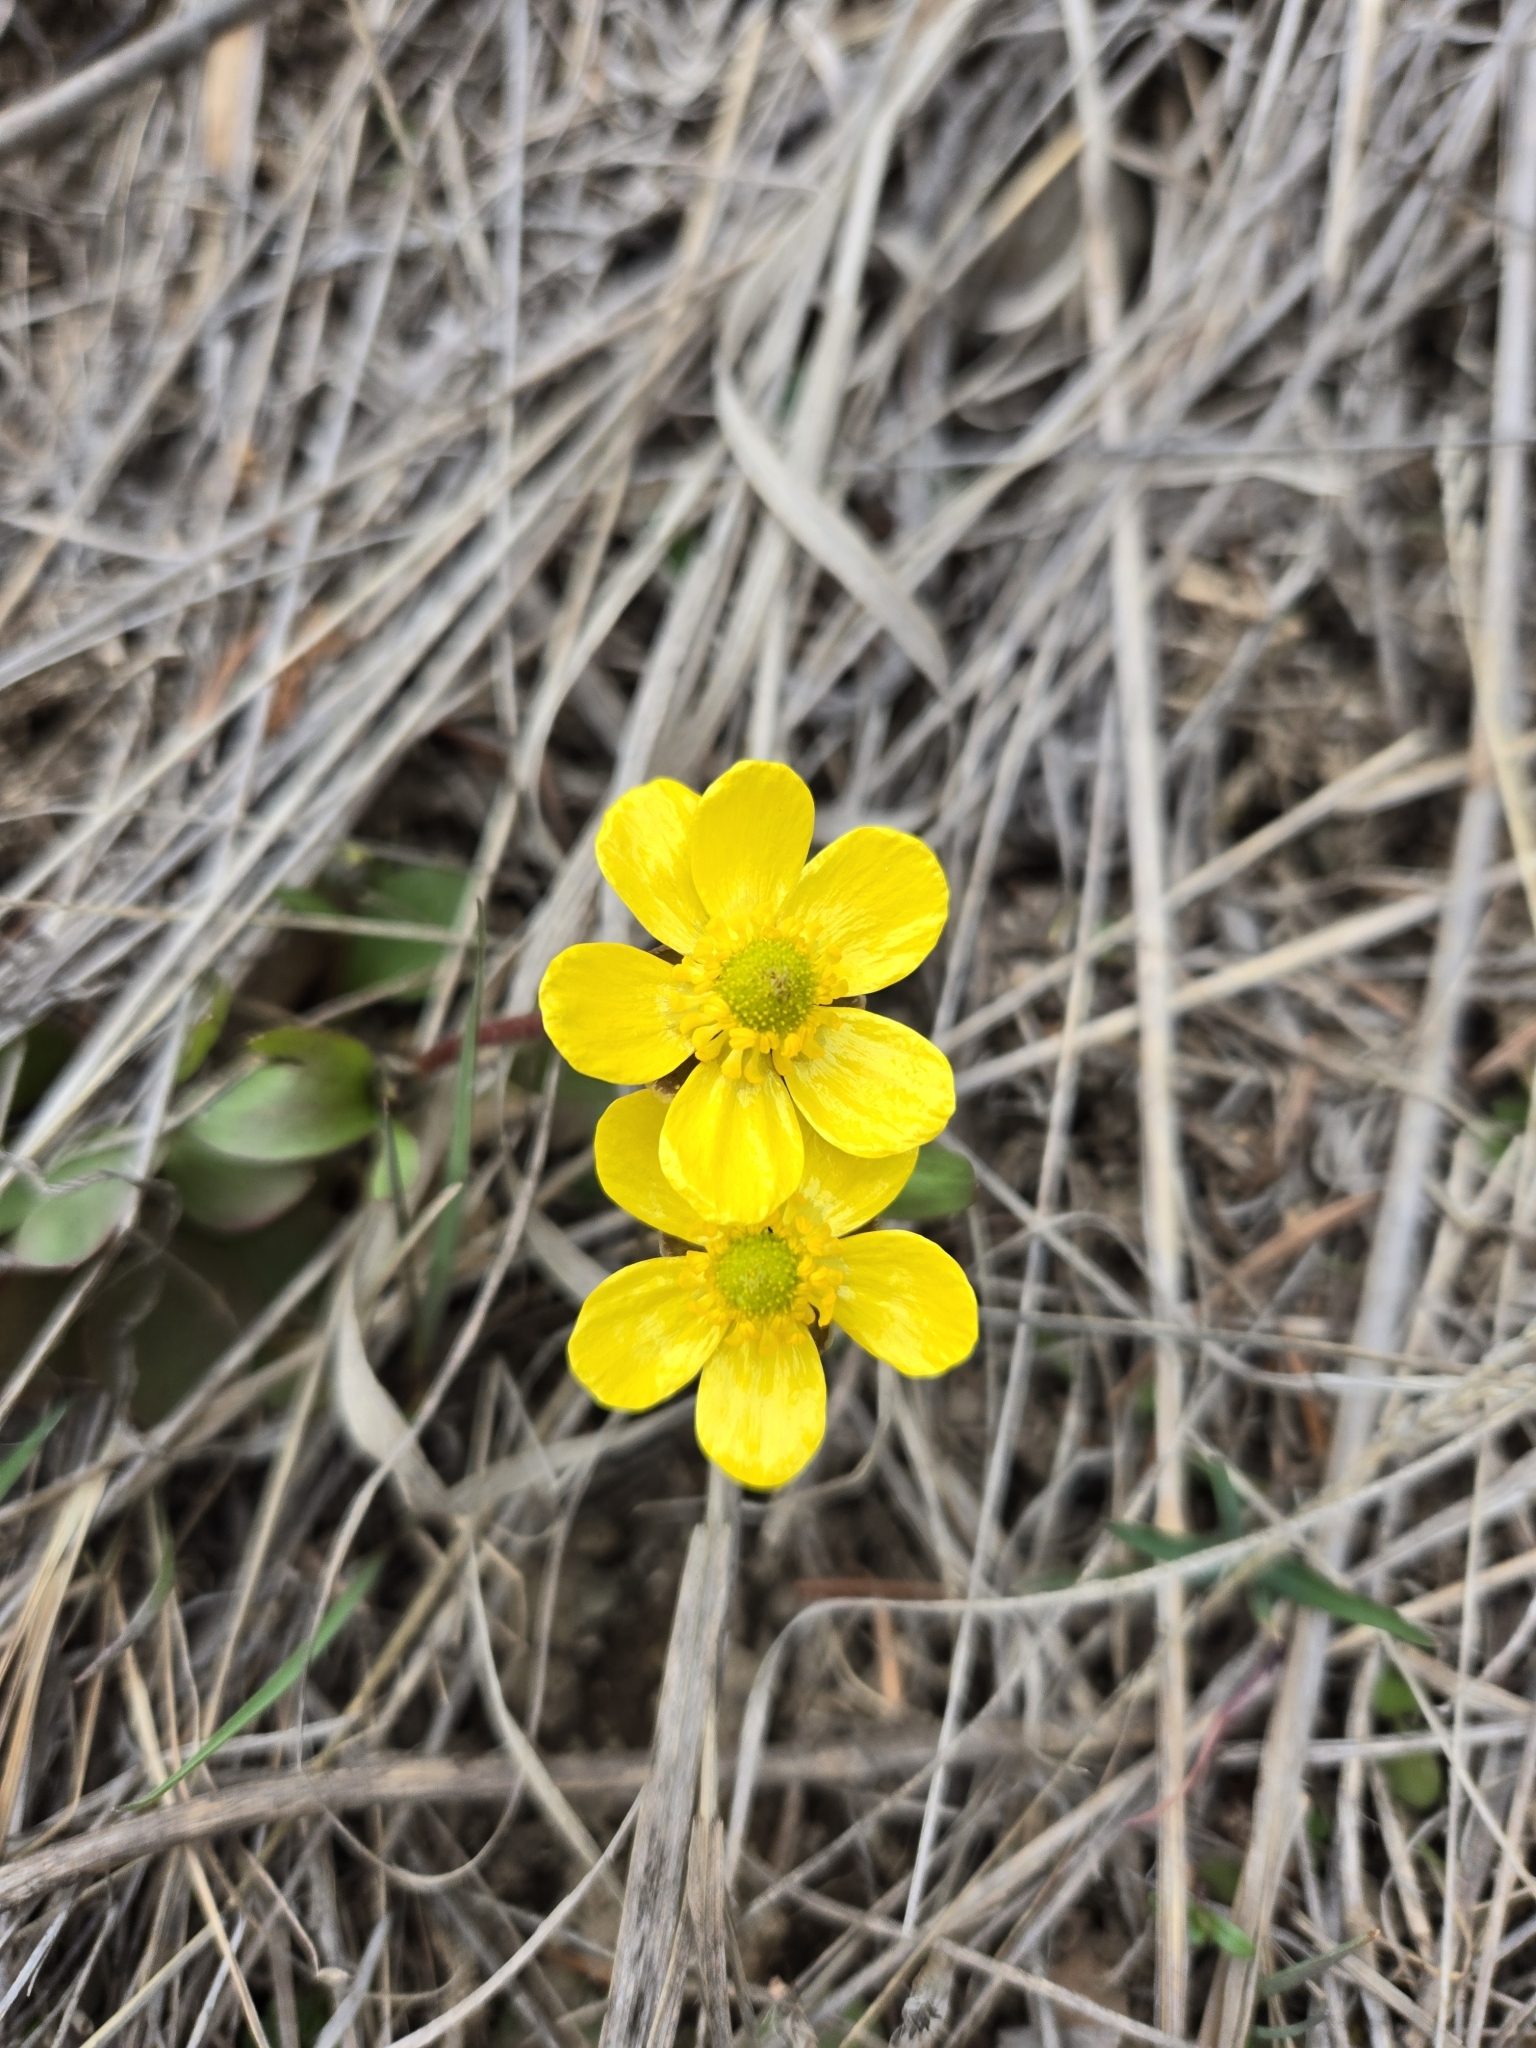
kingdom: Plantae
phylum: Tracheophyta
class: Magnoliopsida
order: Ranunculales
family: Ranunculaceae
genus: Ranunculus
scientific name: Ranunculus glaberrimus
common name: Sagebrush buttercup
